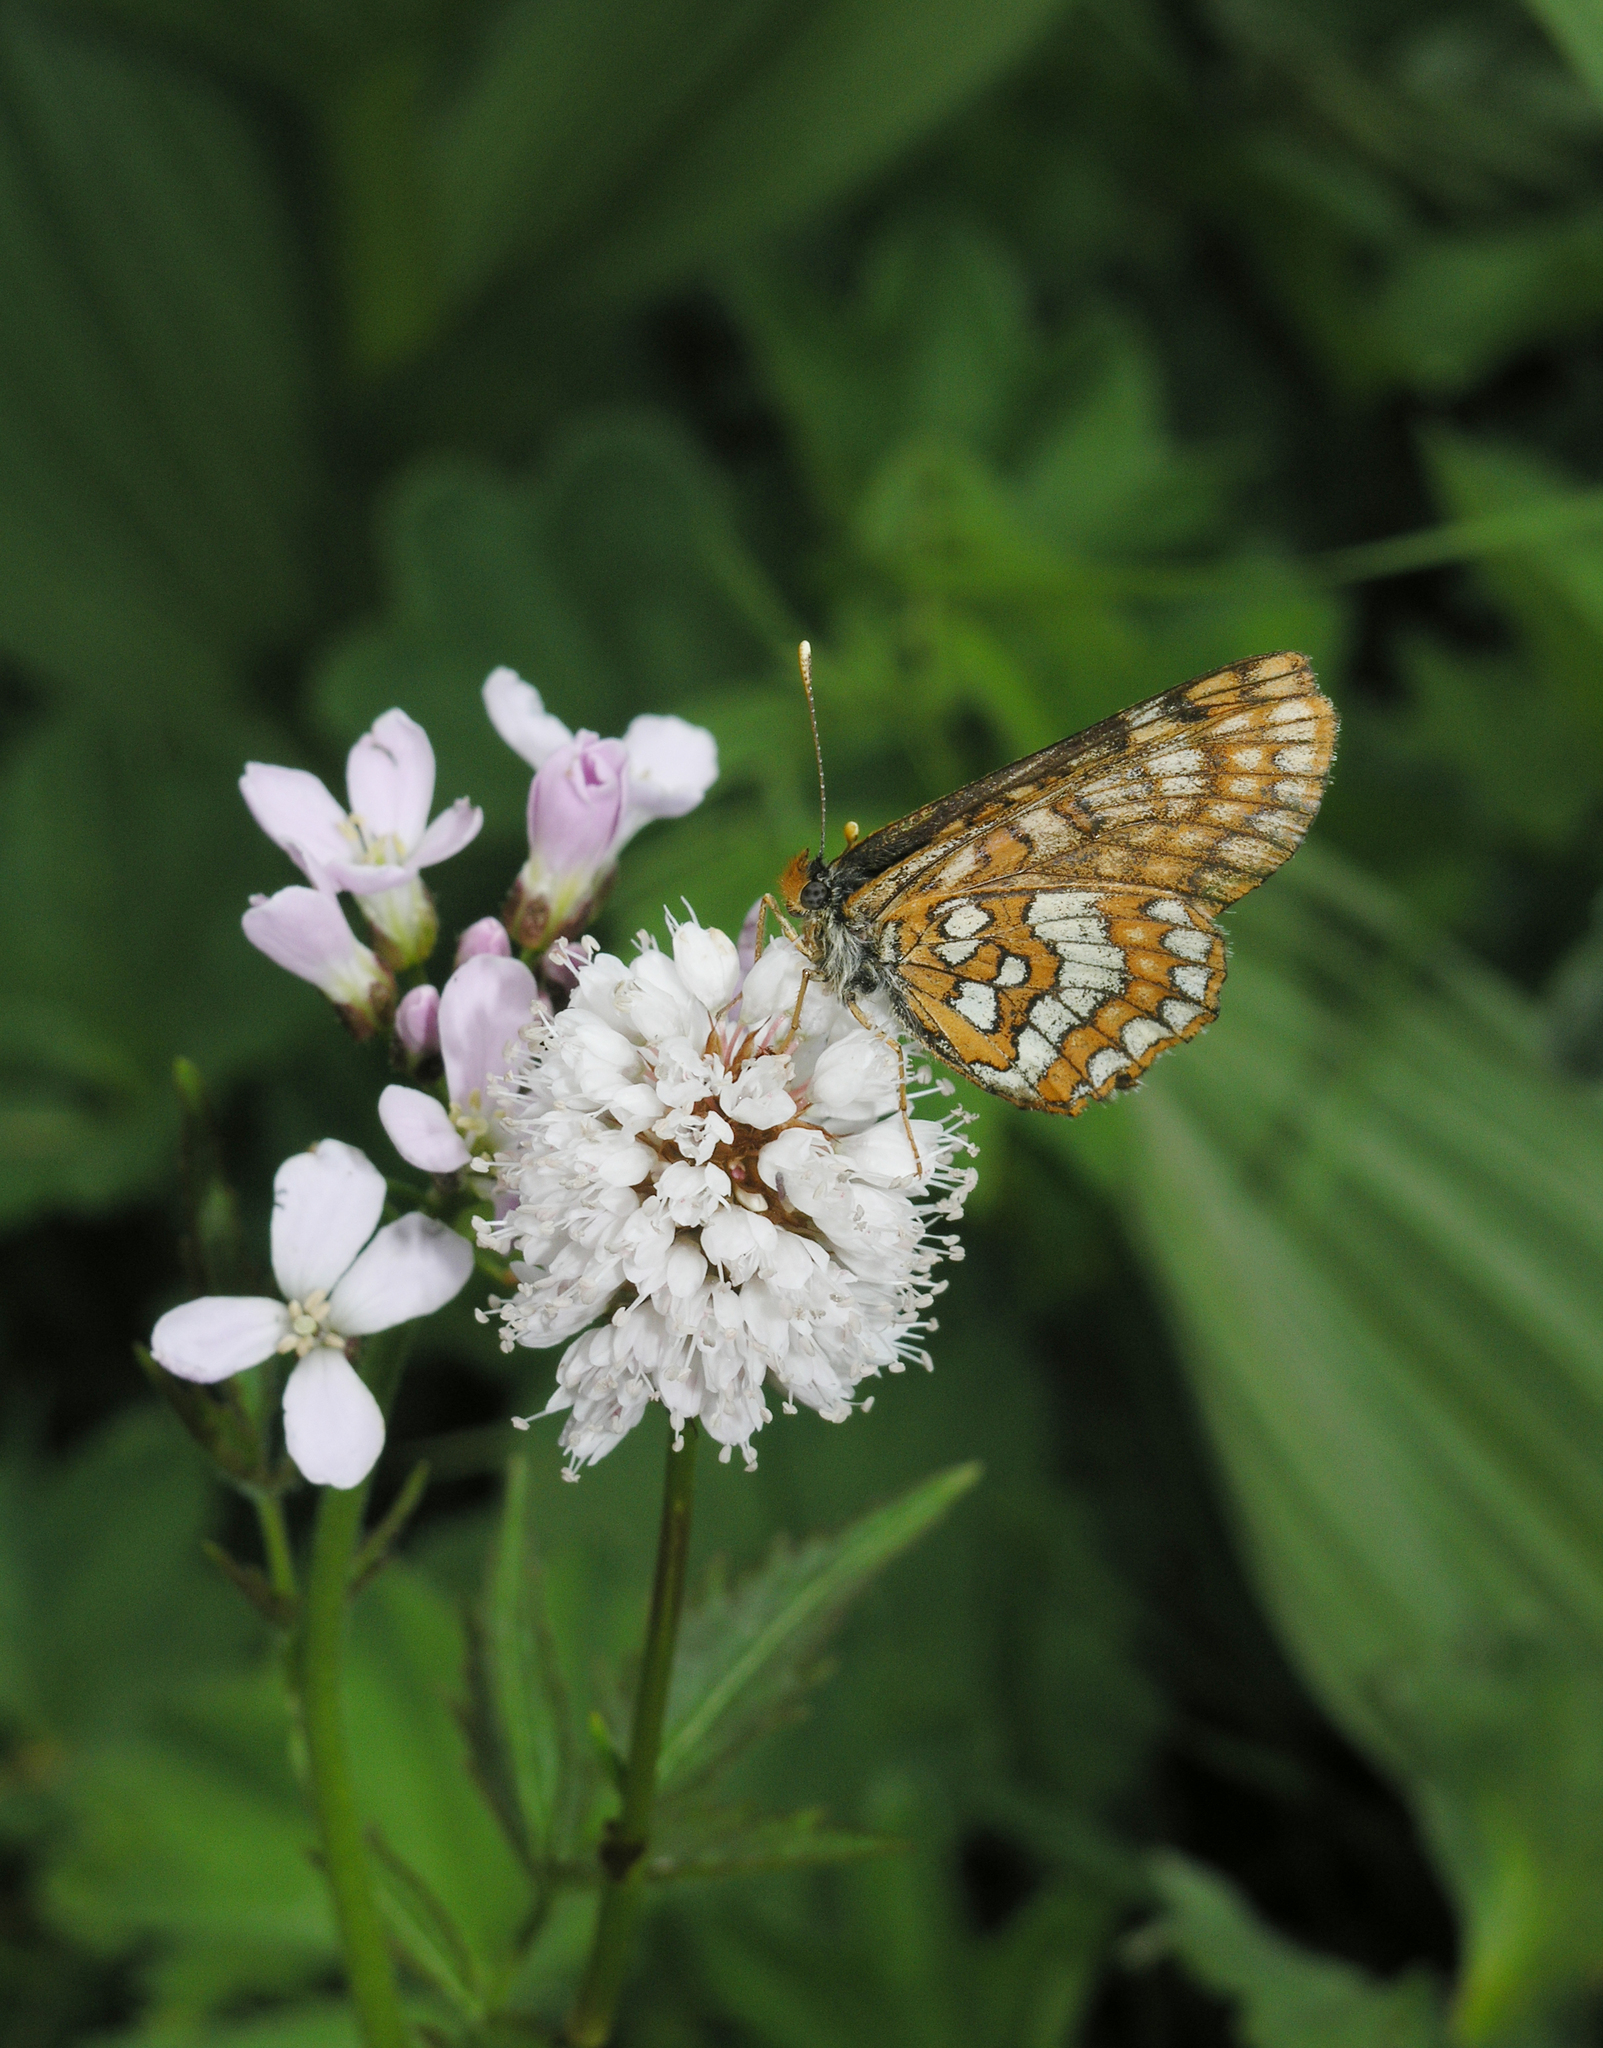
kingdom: Animalia
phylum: Arthropoda
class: Insecta
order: Lepidoptera
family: Nymphalidae
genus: Hypodryas
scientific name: Hypodryas intermedia
